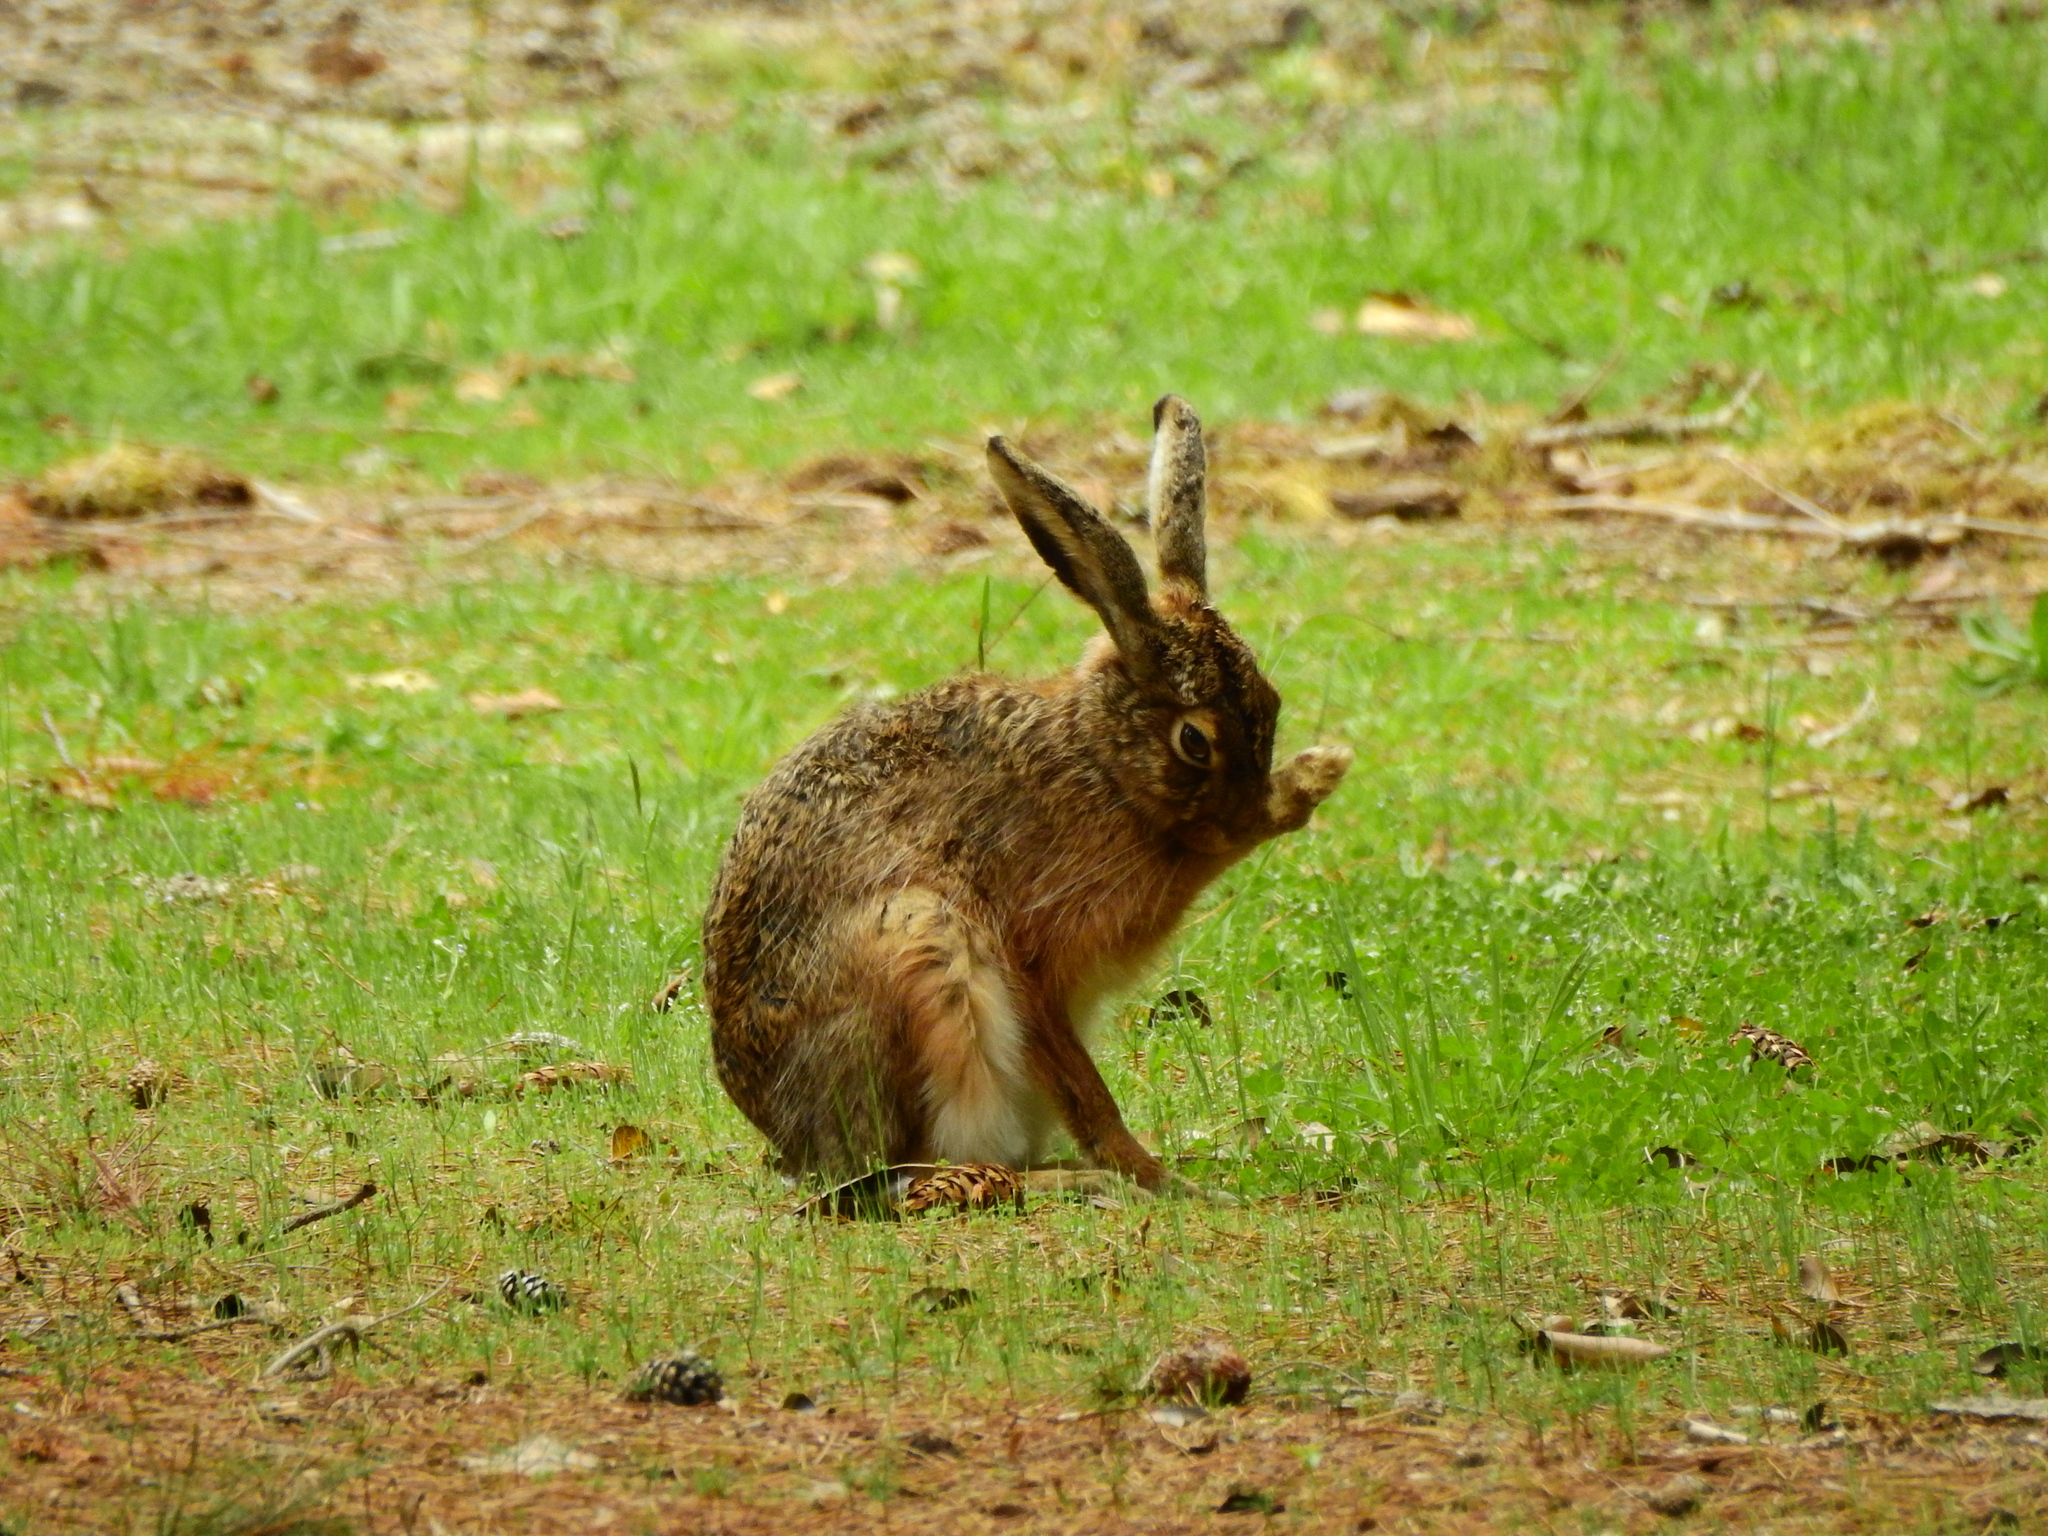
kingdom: Animalia
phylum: Chordata
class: Mammalia
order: Lagomorpha
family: Leporidae
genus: Lepus
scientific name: Lepus europaeus
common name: European hare
